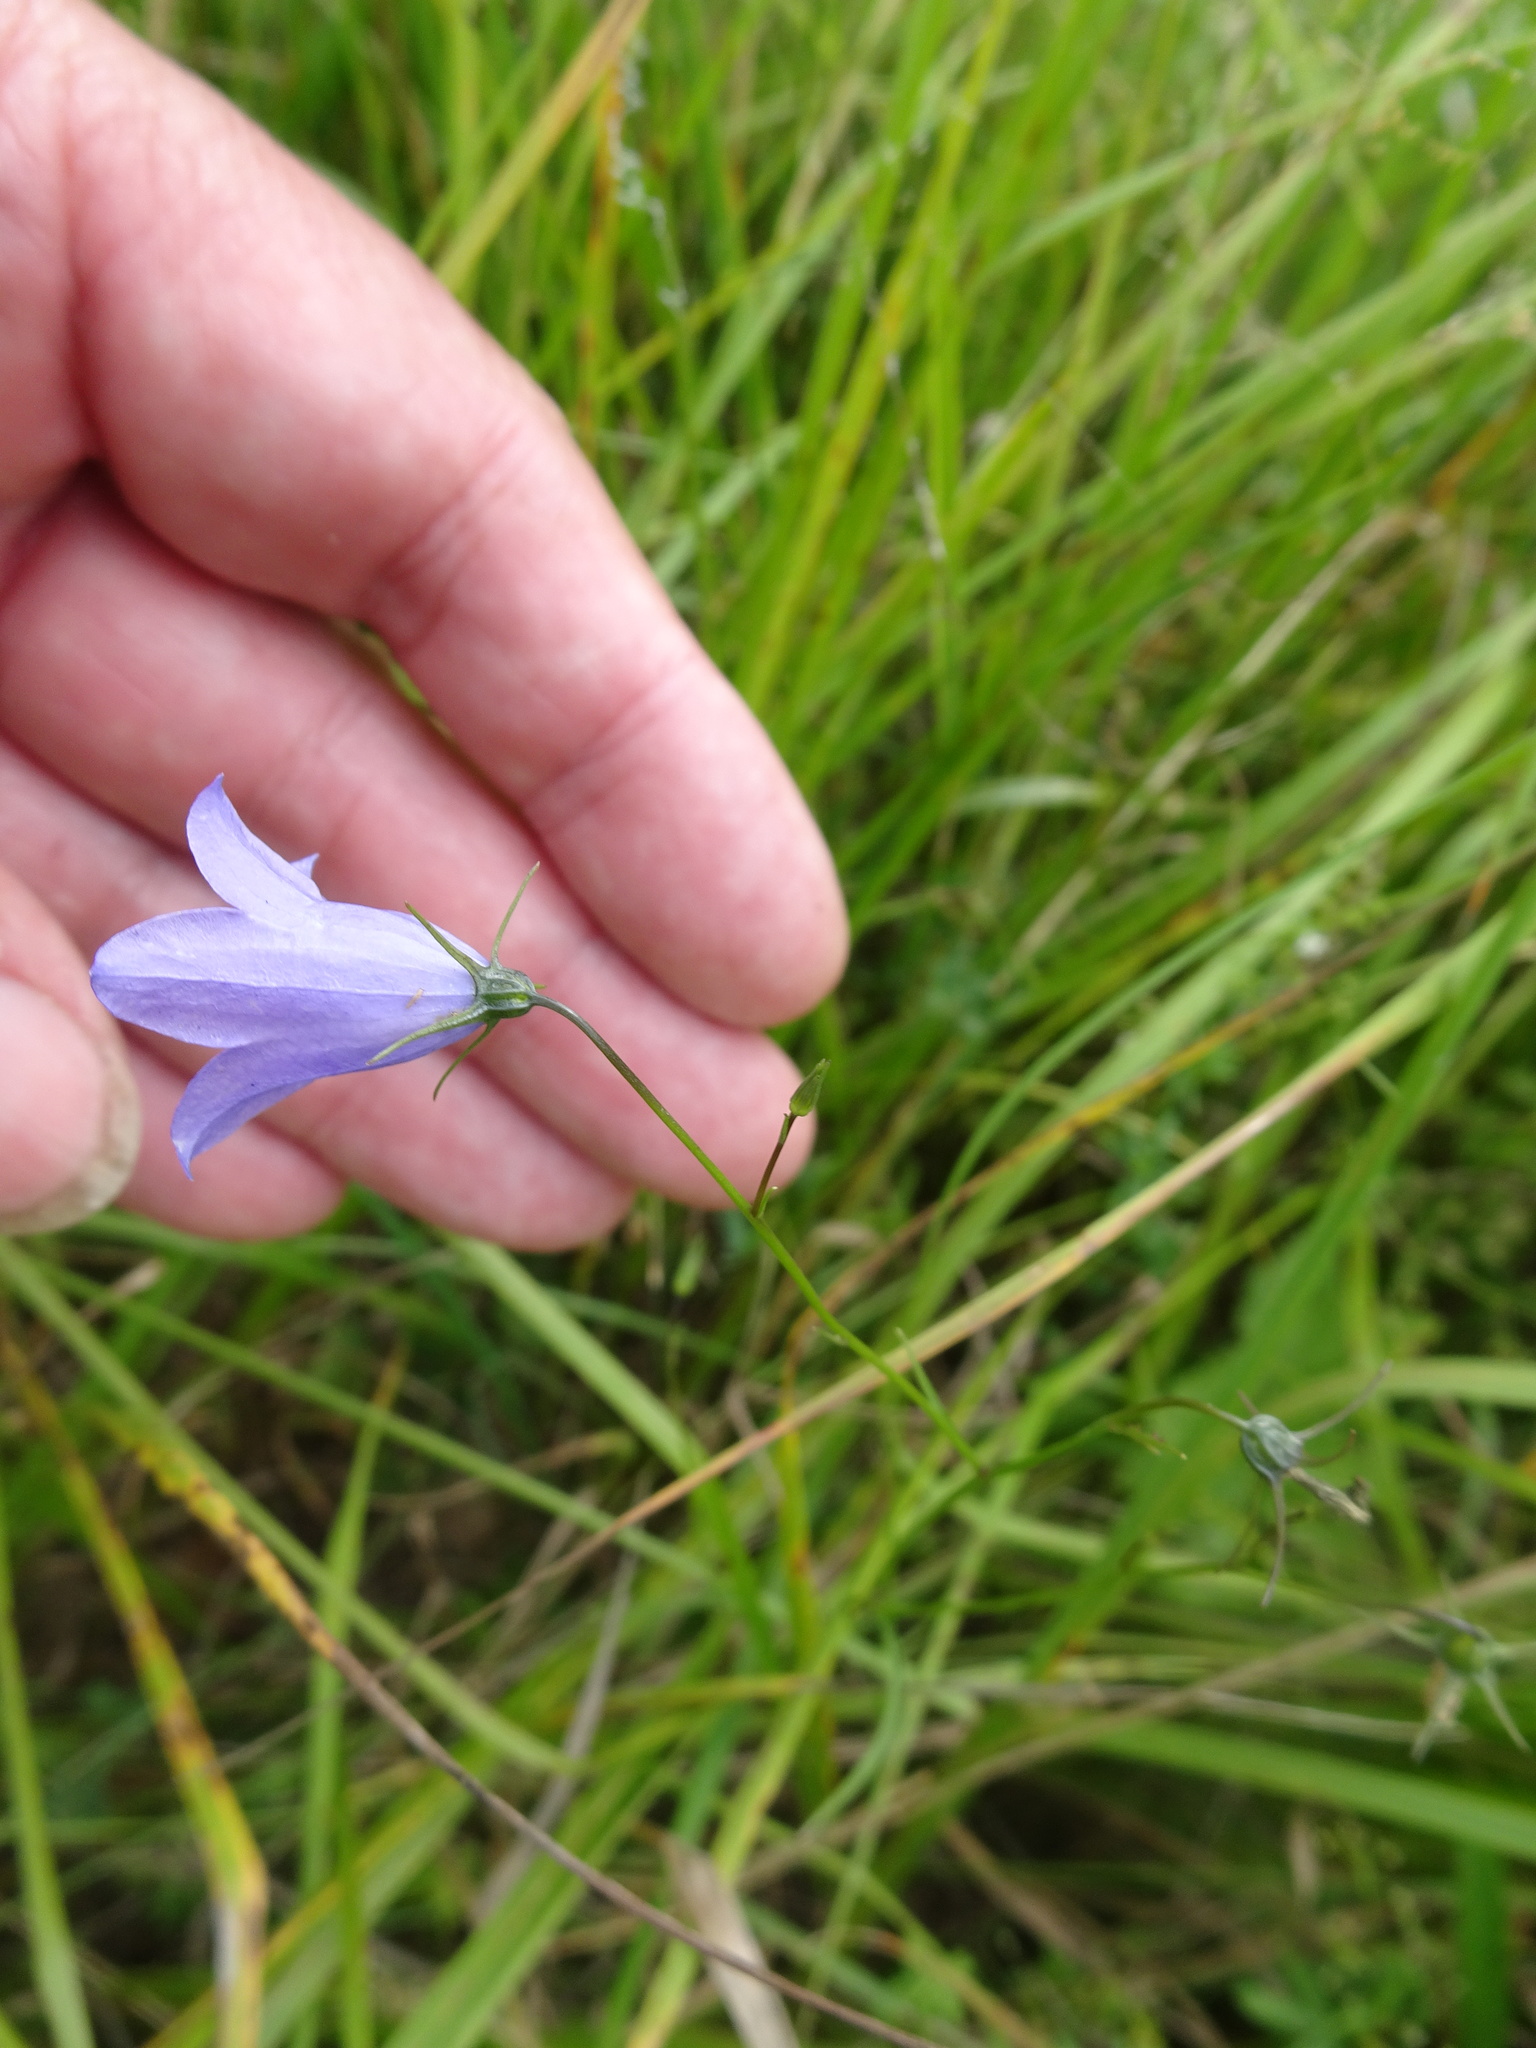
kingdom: Plantae
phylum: Tracheophyta
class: Magnoliopsida
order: Asterales
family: Campanulaceae
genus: Campanula
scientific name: Campanula rotundifolia
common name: Harebell
